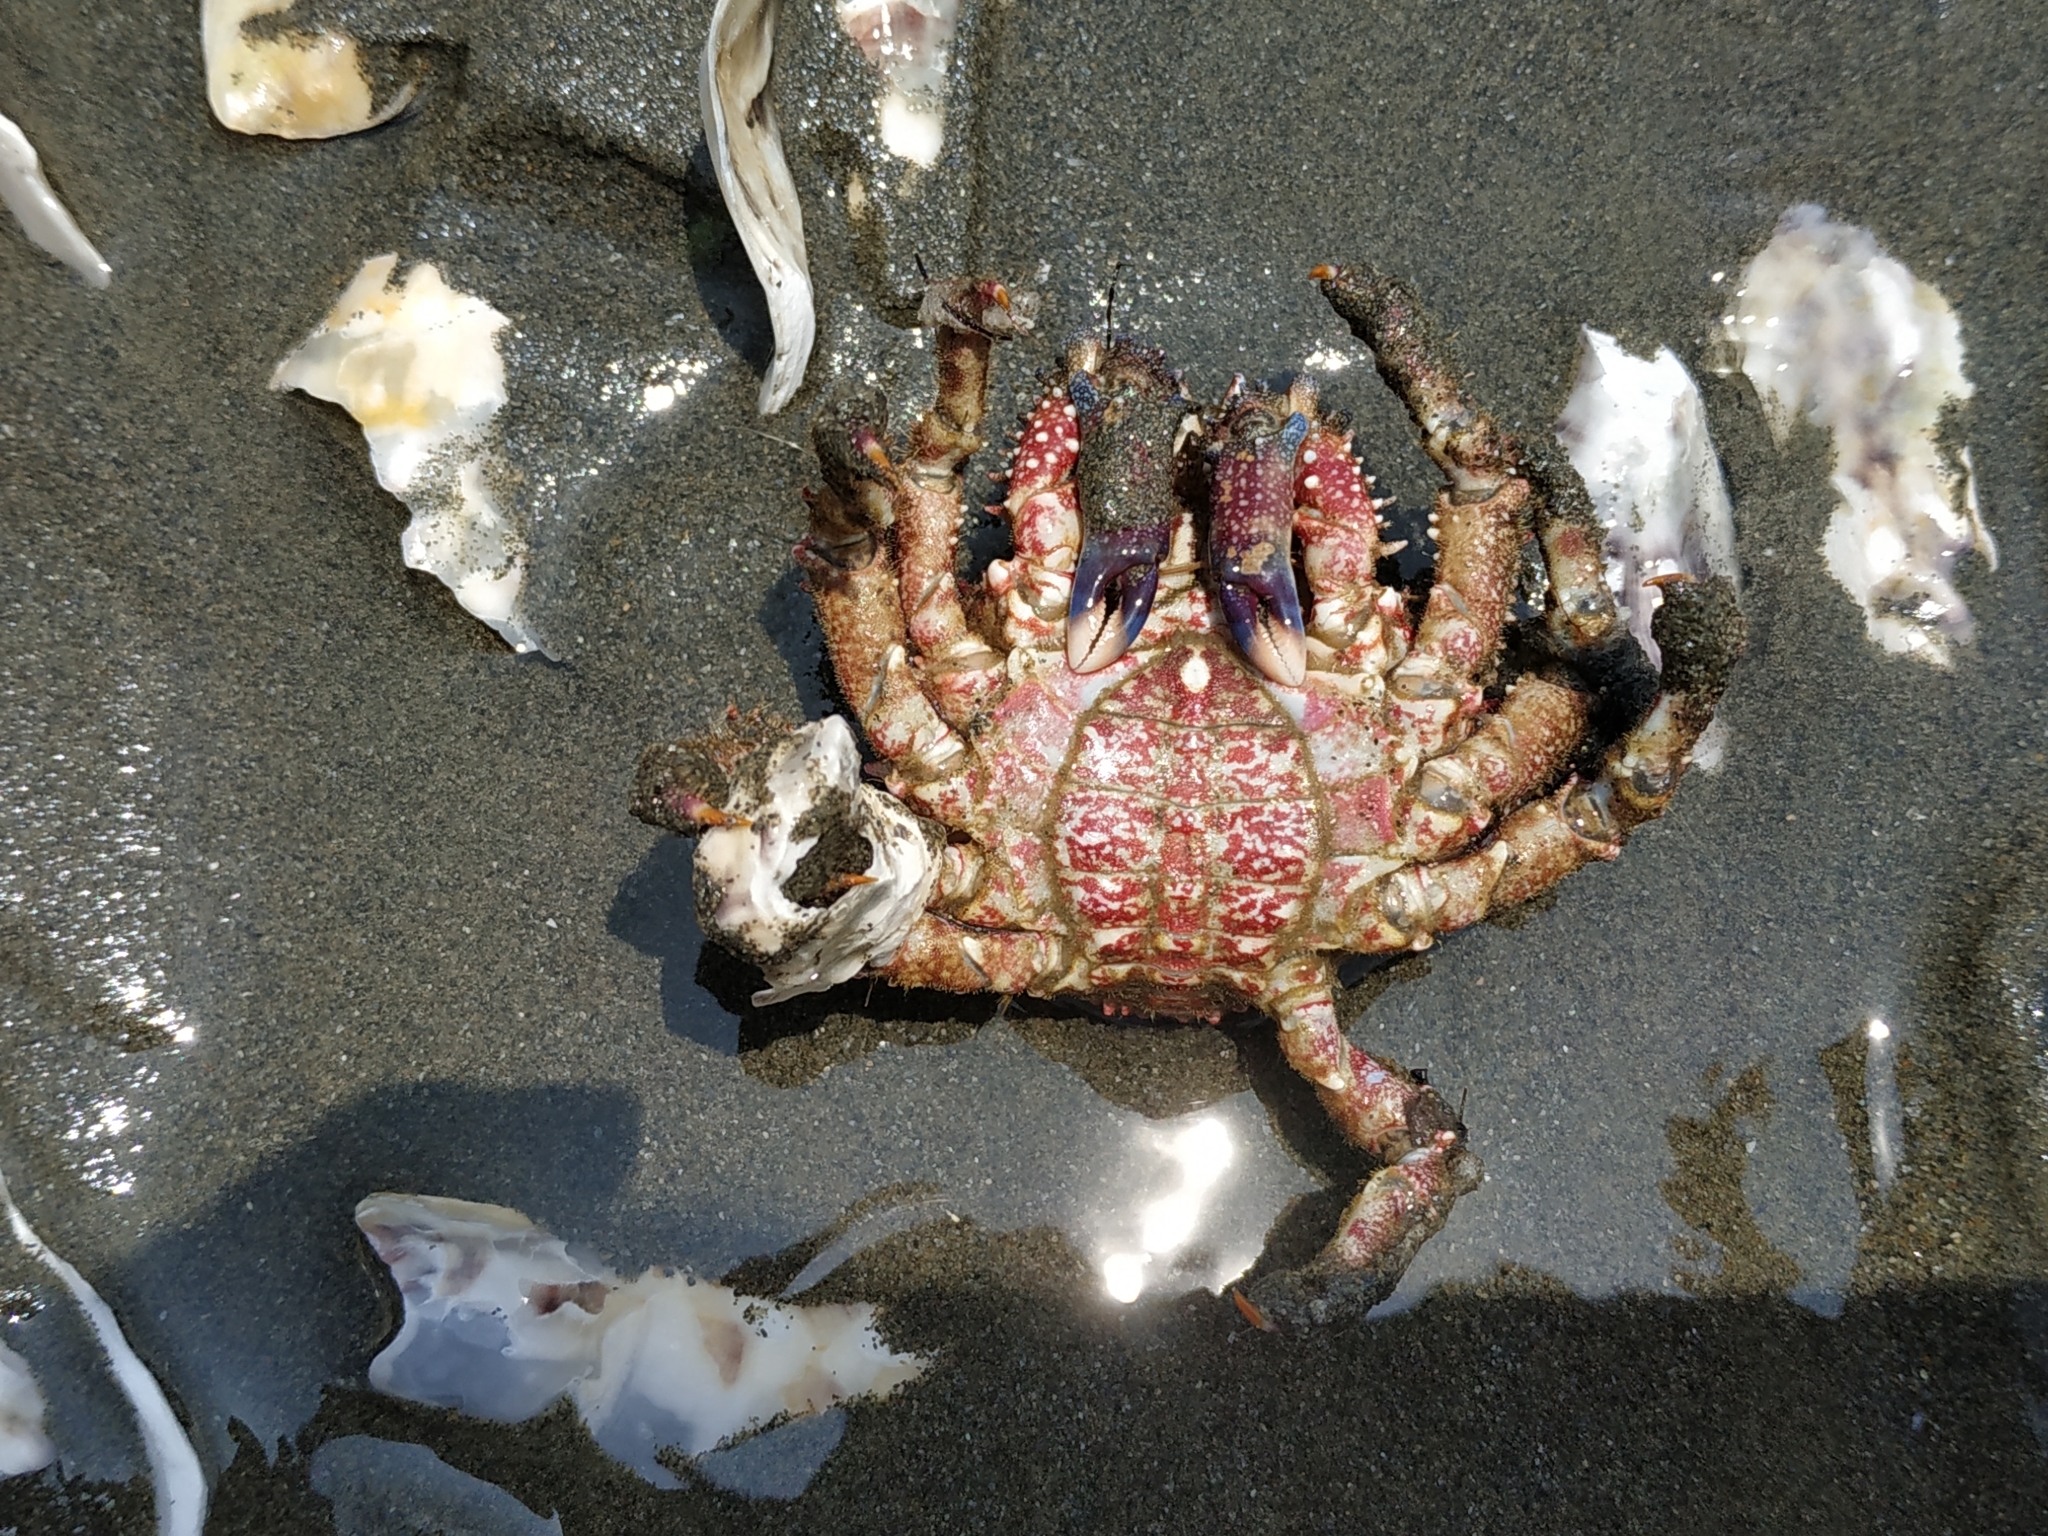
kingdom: Animalia
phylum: Arthropoda
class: Malacostraca
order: Decapoda
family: Mithracidae
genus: Amphithrax
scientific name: Amphithrax armatus
